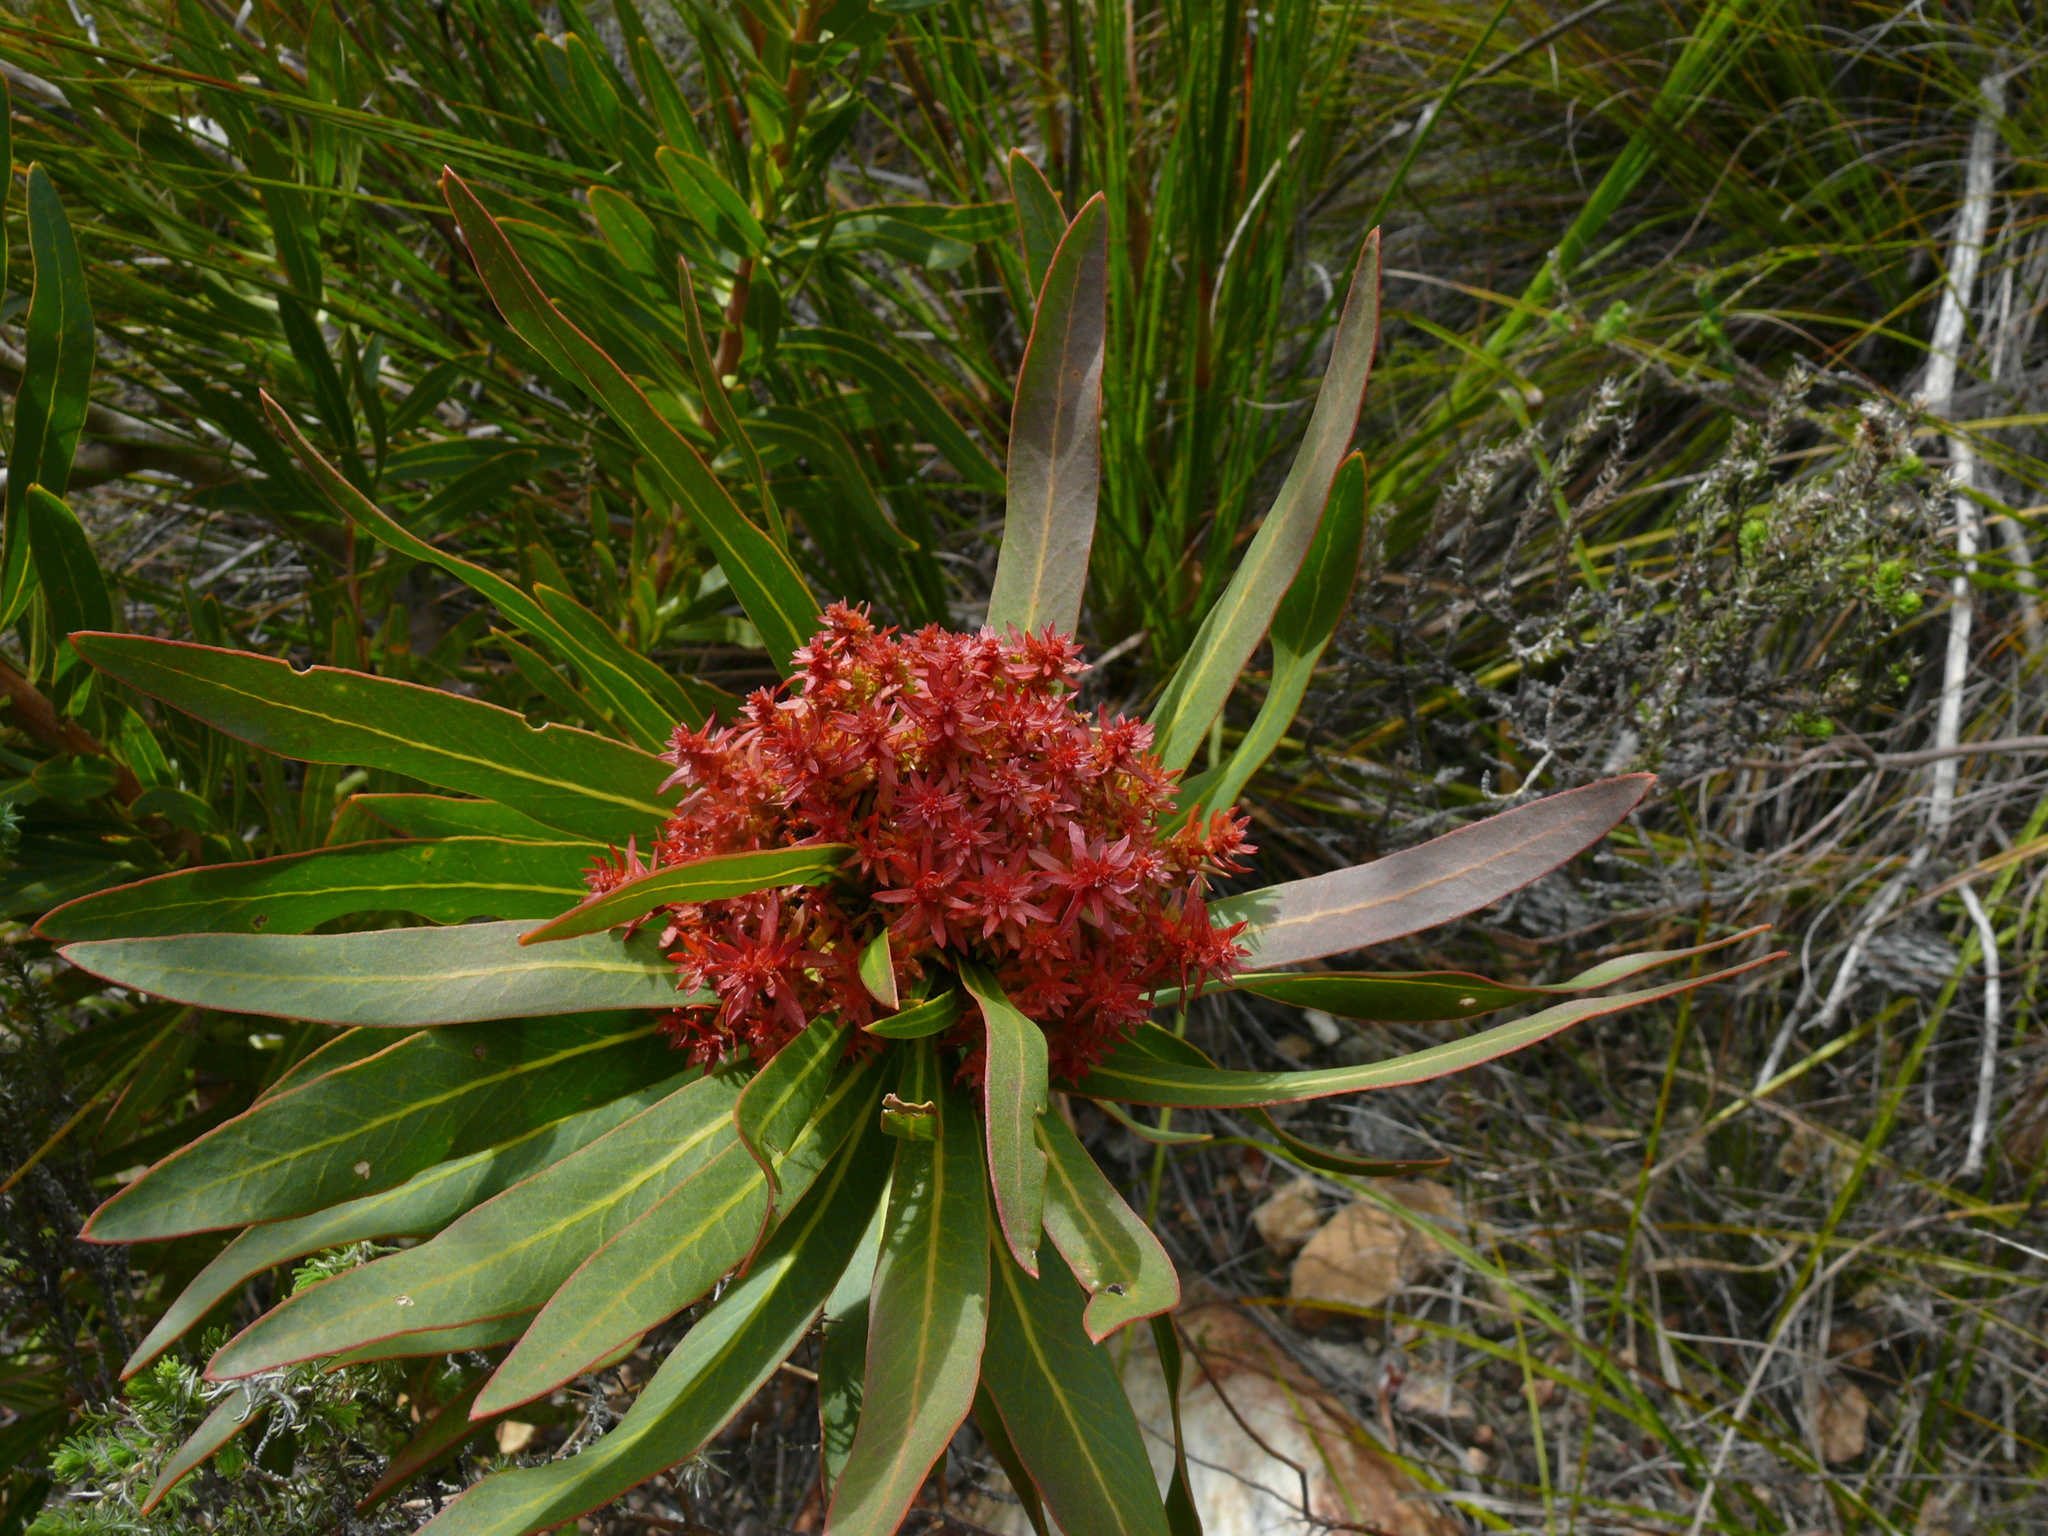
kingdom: Bacteria
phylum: Firmicutes
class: Bacilli
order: Acholeplasmatales
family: Acholeplasmataceae
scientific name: Acholeplasmataceae
